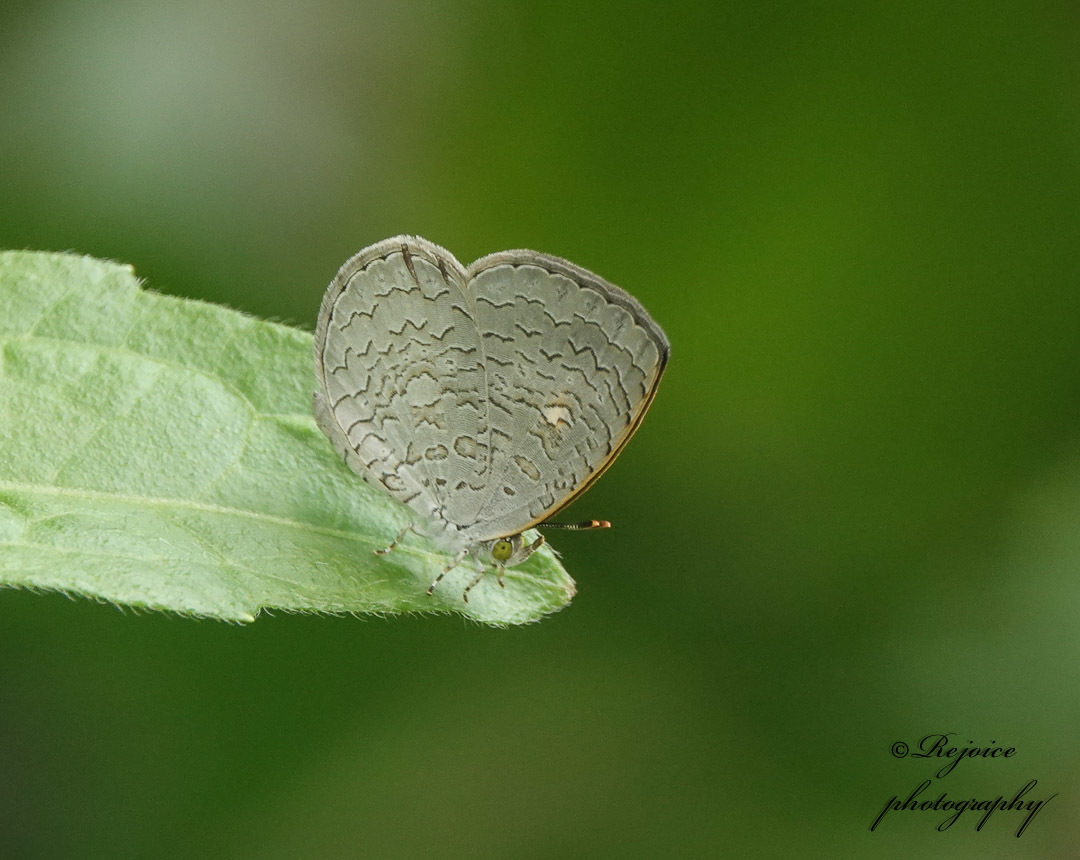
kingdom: Animalia
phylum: Arthropoda
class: Insecta
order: Lepidoptera
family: Lycaenidae
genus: Spalgis
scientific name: Spalgis epius
